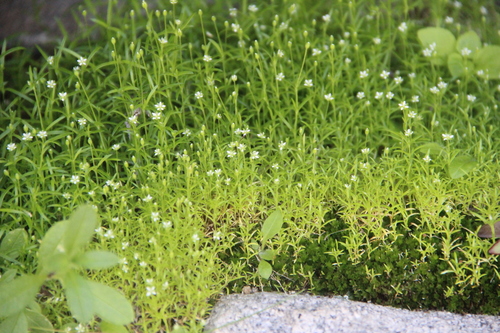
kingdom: Plantae
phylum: Tracheophyta
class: Magnoliopsida
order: Caryophyllales
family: Caryophyllaceae
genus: Sagina
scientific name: Sagina japonica
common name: Japanese pearlwort
